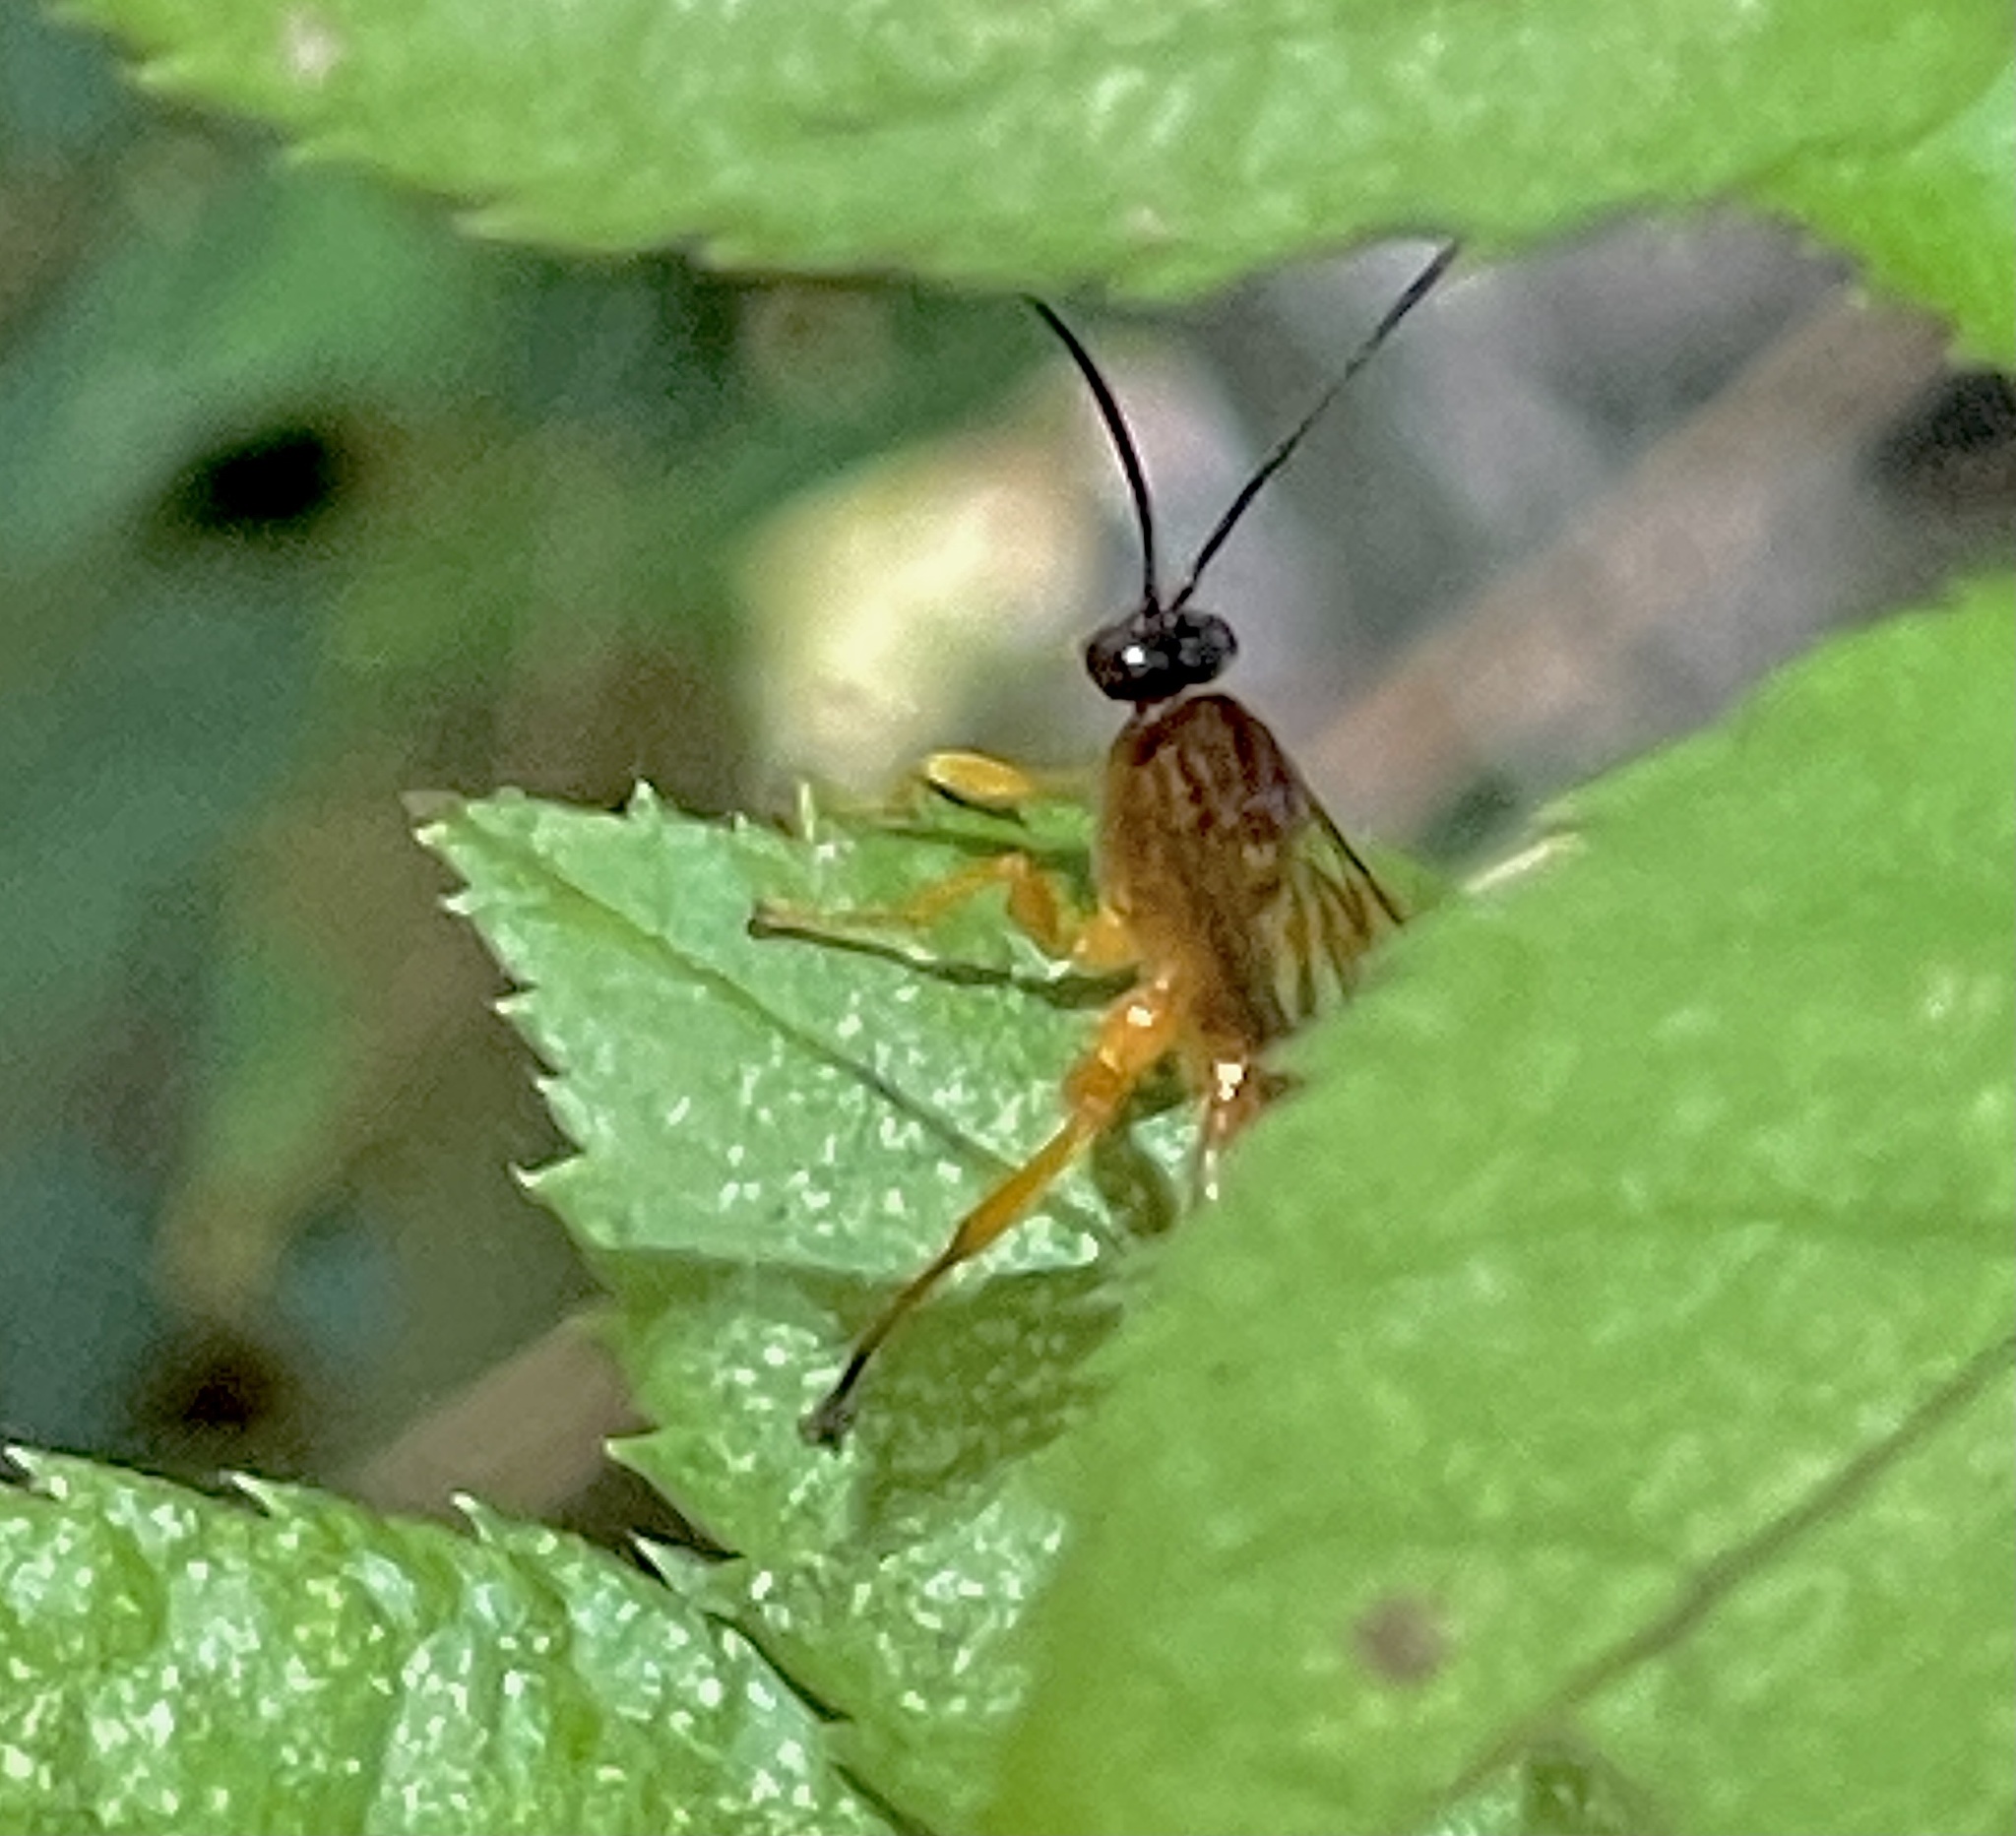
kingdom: Animalia
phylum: Arthropoda
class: Insecta
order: Hymenoptera
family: Ichneumonidae
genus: Theronia
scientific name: Theronia hilaris
